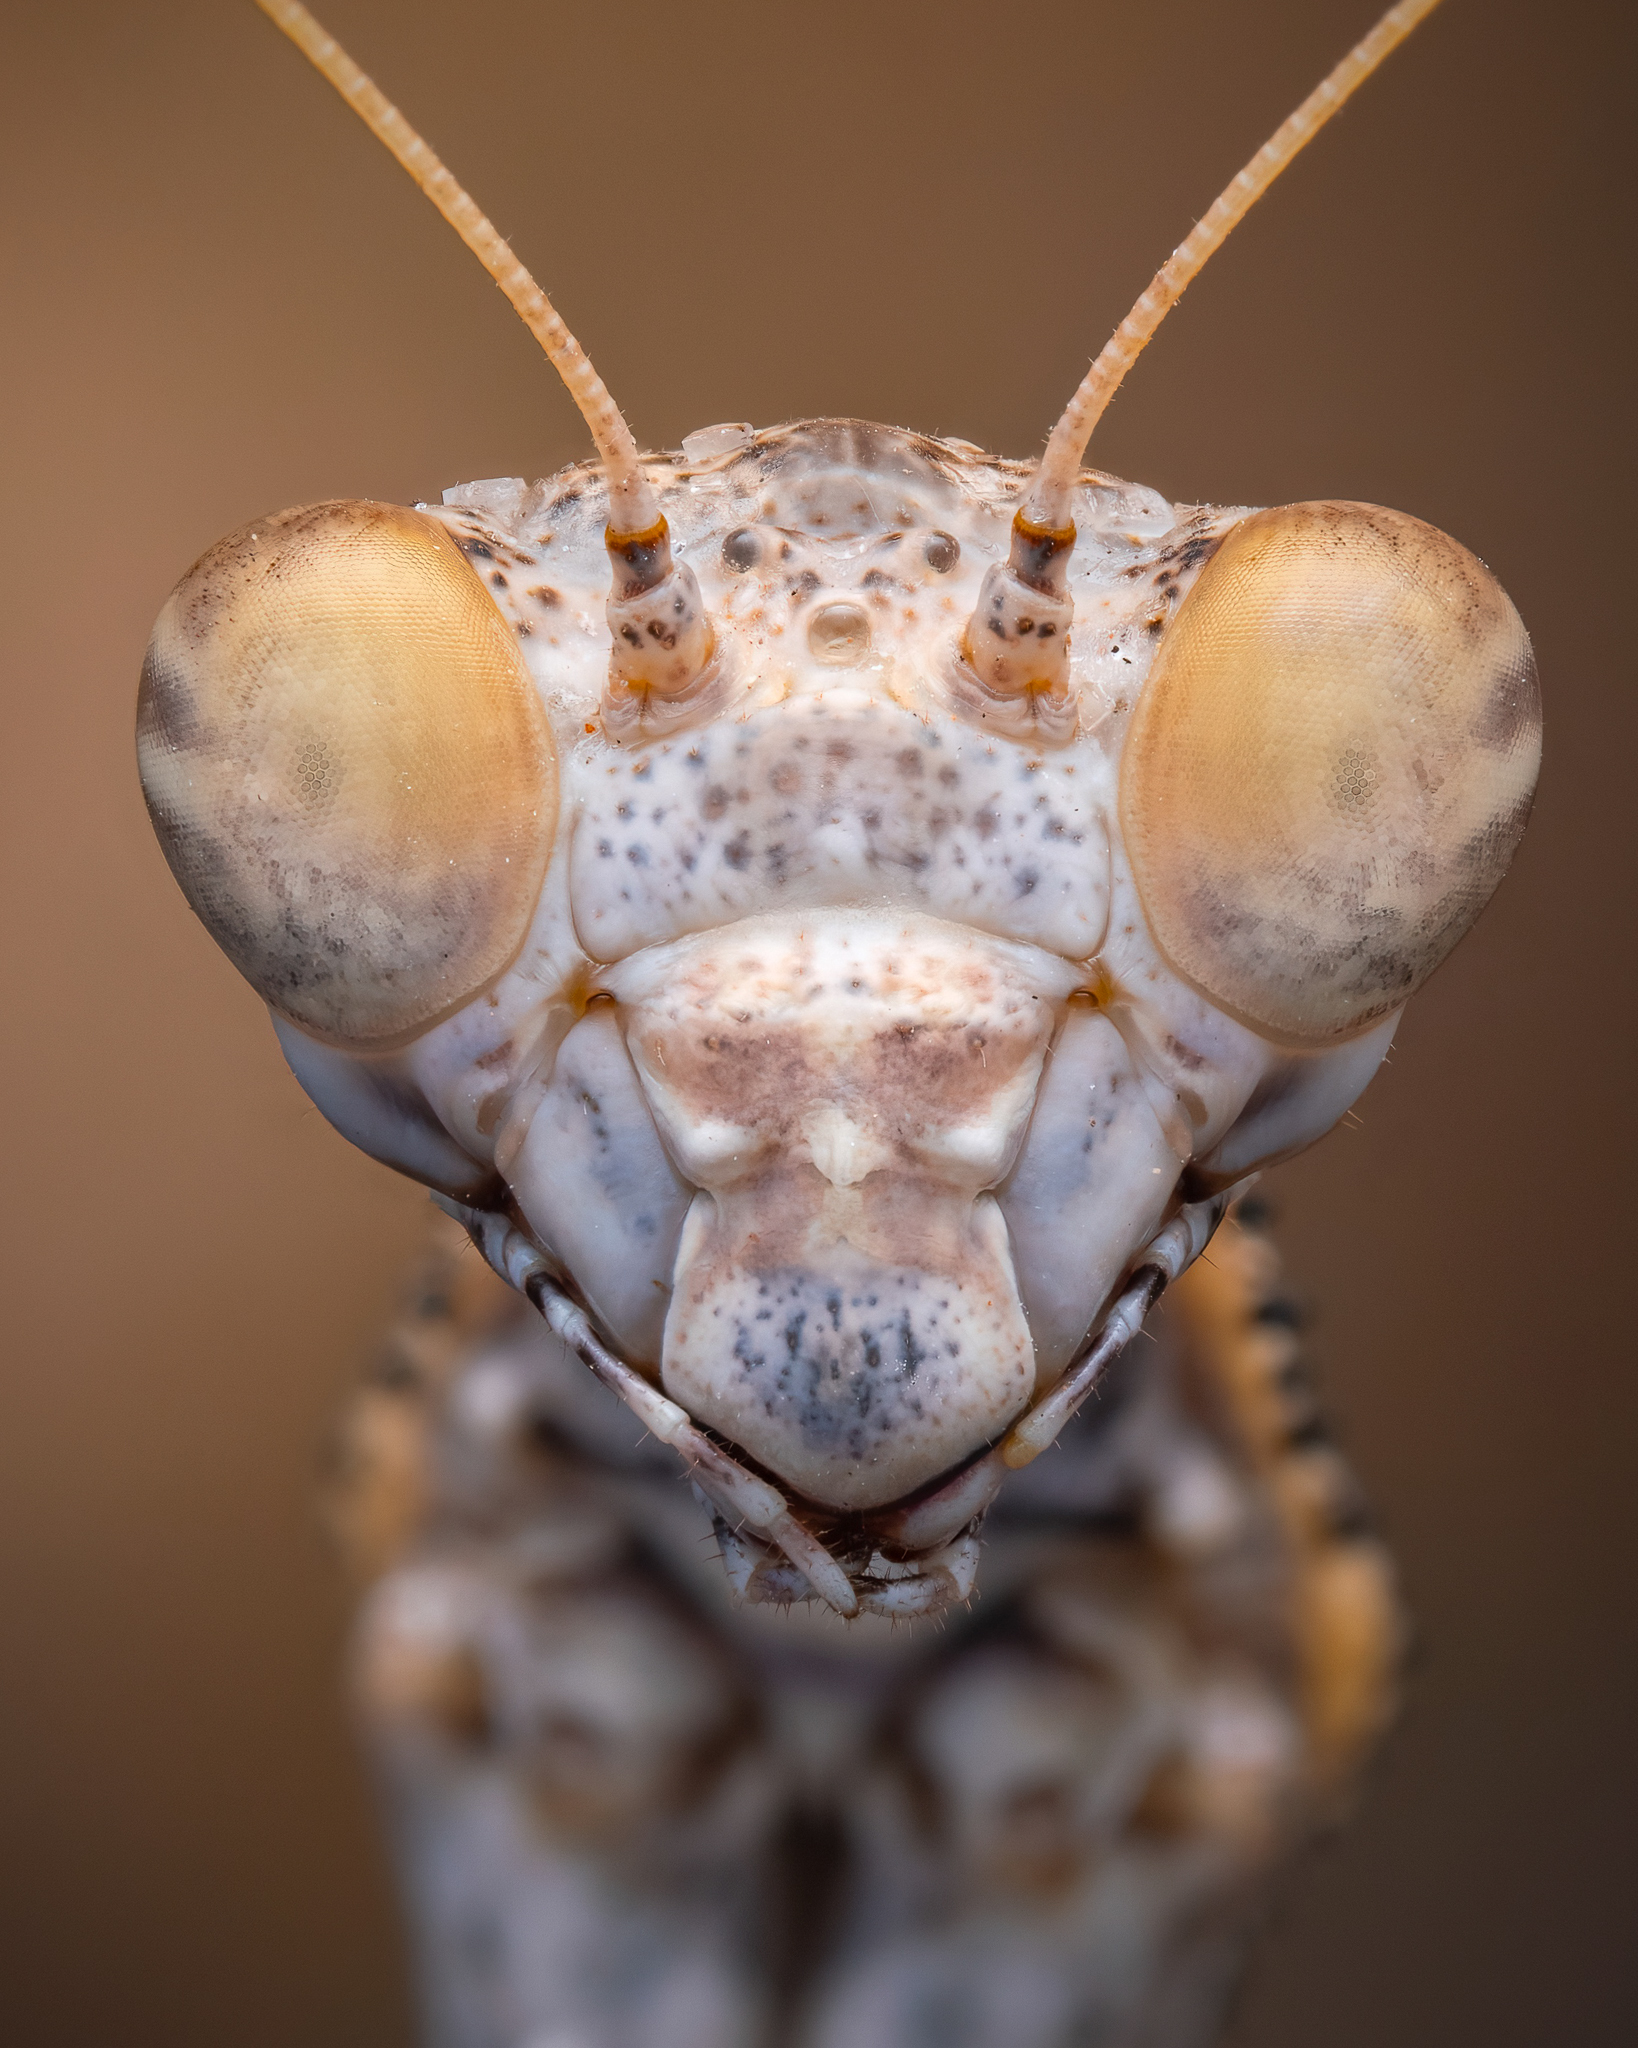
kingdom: Animalia
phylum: Arthropoda
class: Insecta
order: Mantodea
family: Rivetinidae
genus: Rivetina
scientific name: Rivetina balcanica
